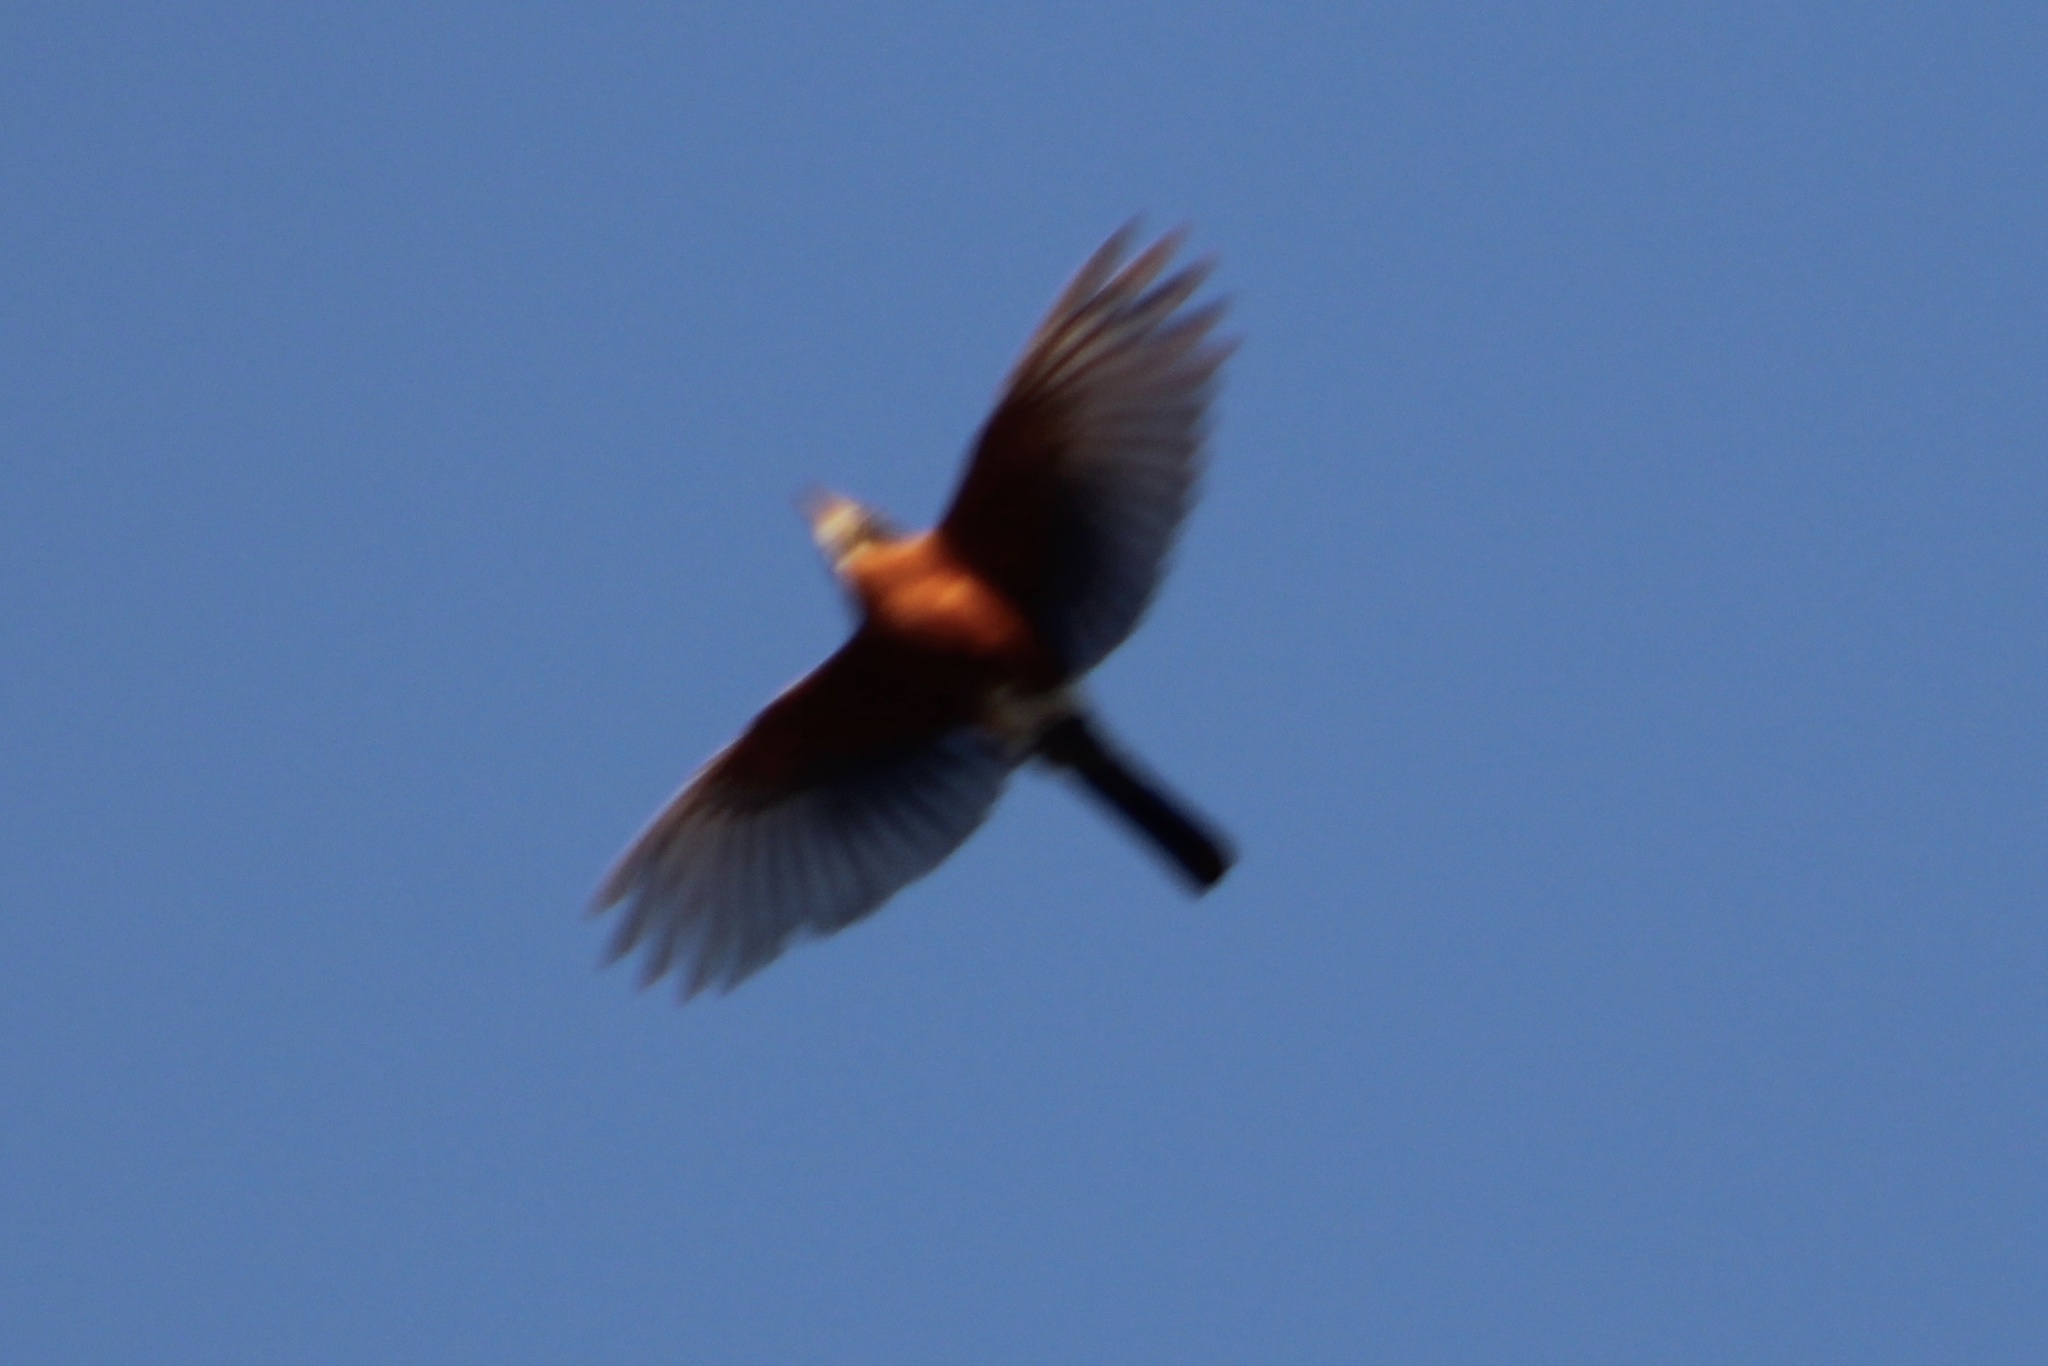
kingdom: Animalia
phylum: Chordata
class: Aves
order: Passeriformes
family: Turdidae
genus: Turdus
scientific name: Turdus migratorius
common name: American robin
